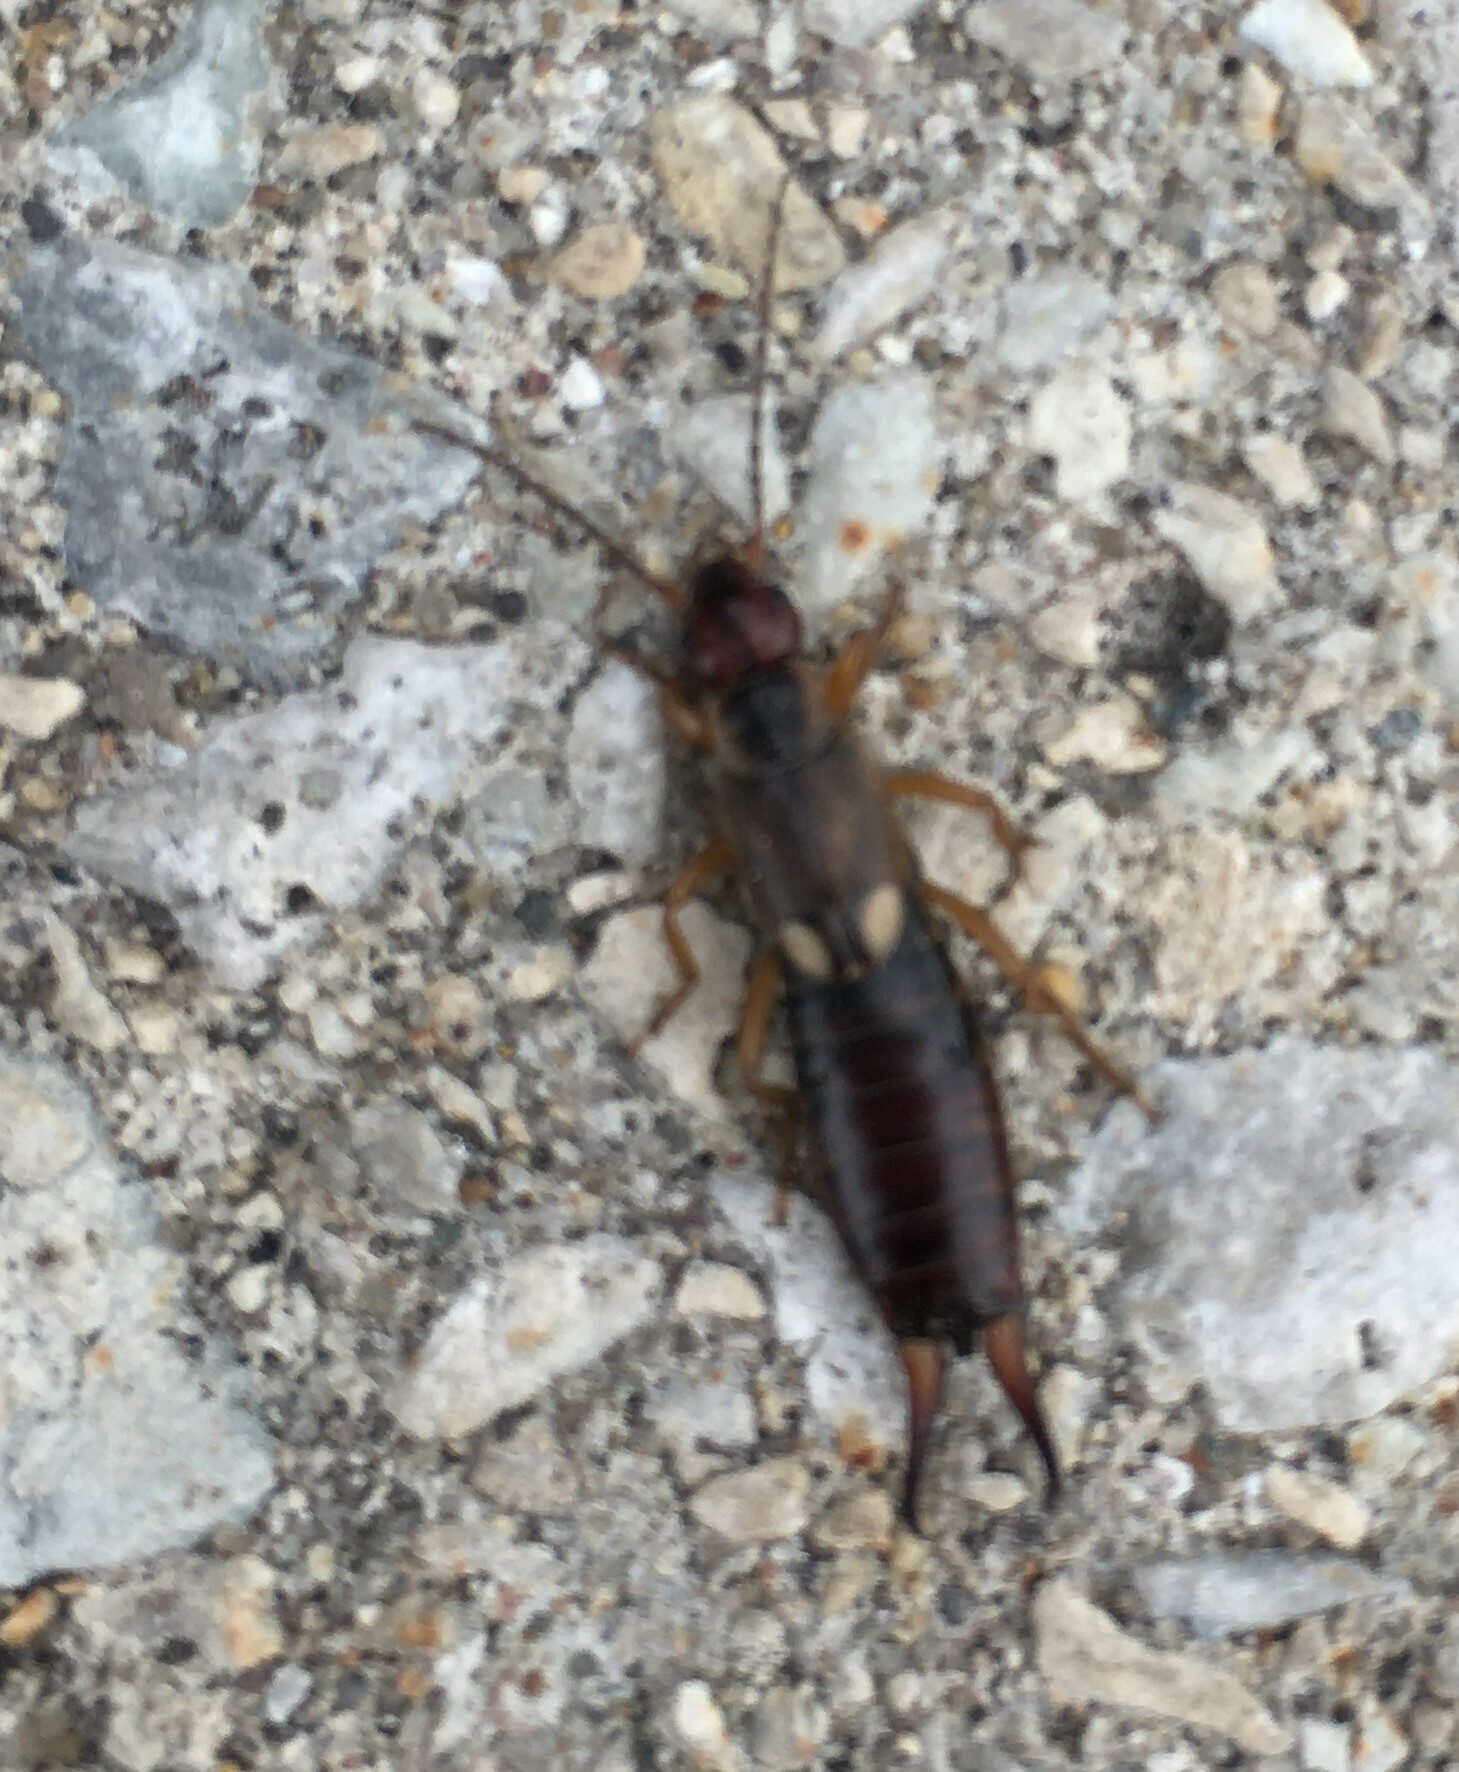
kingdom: Animalia
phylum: Arthropoda
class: Insecta
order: Dermaptera
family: Forficulidae
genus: Forficula
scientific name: Forficula
